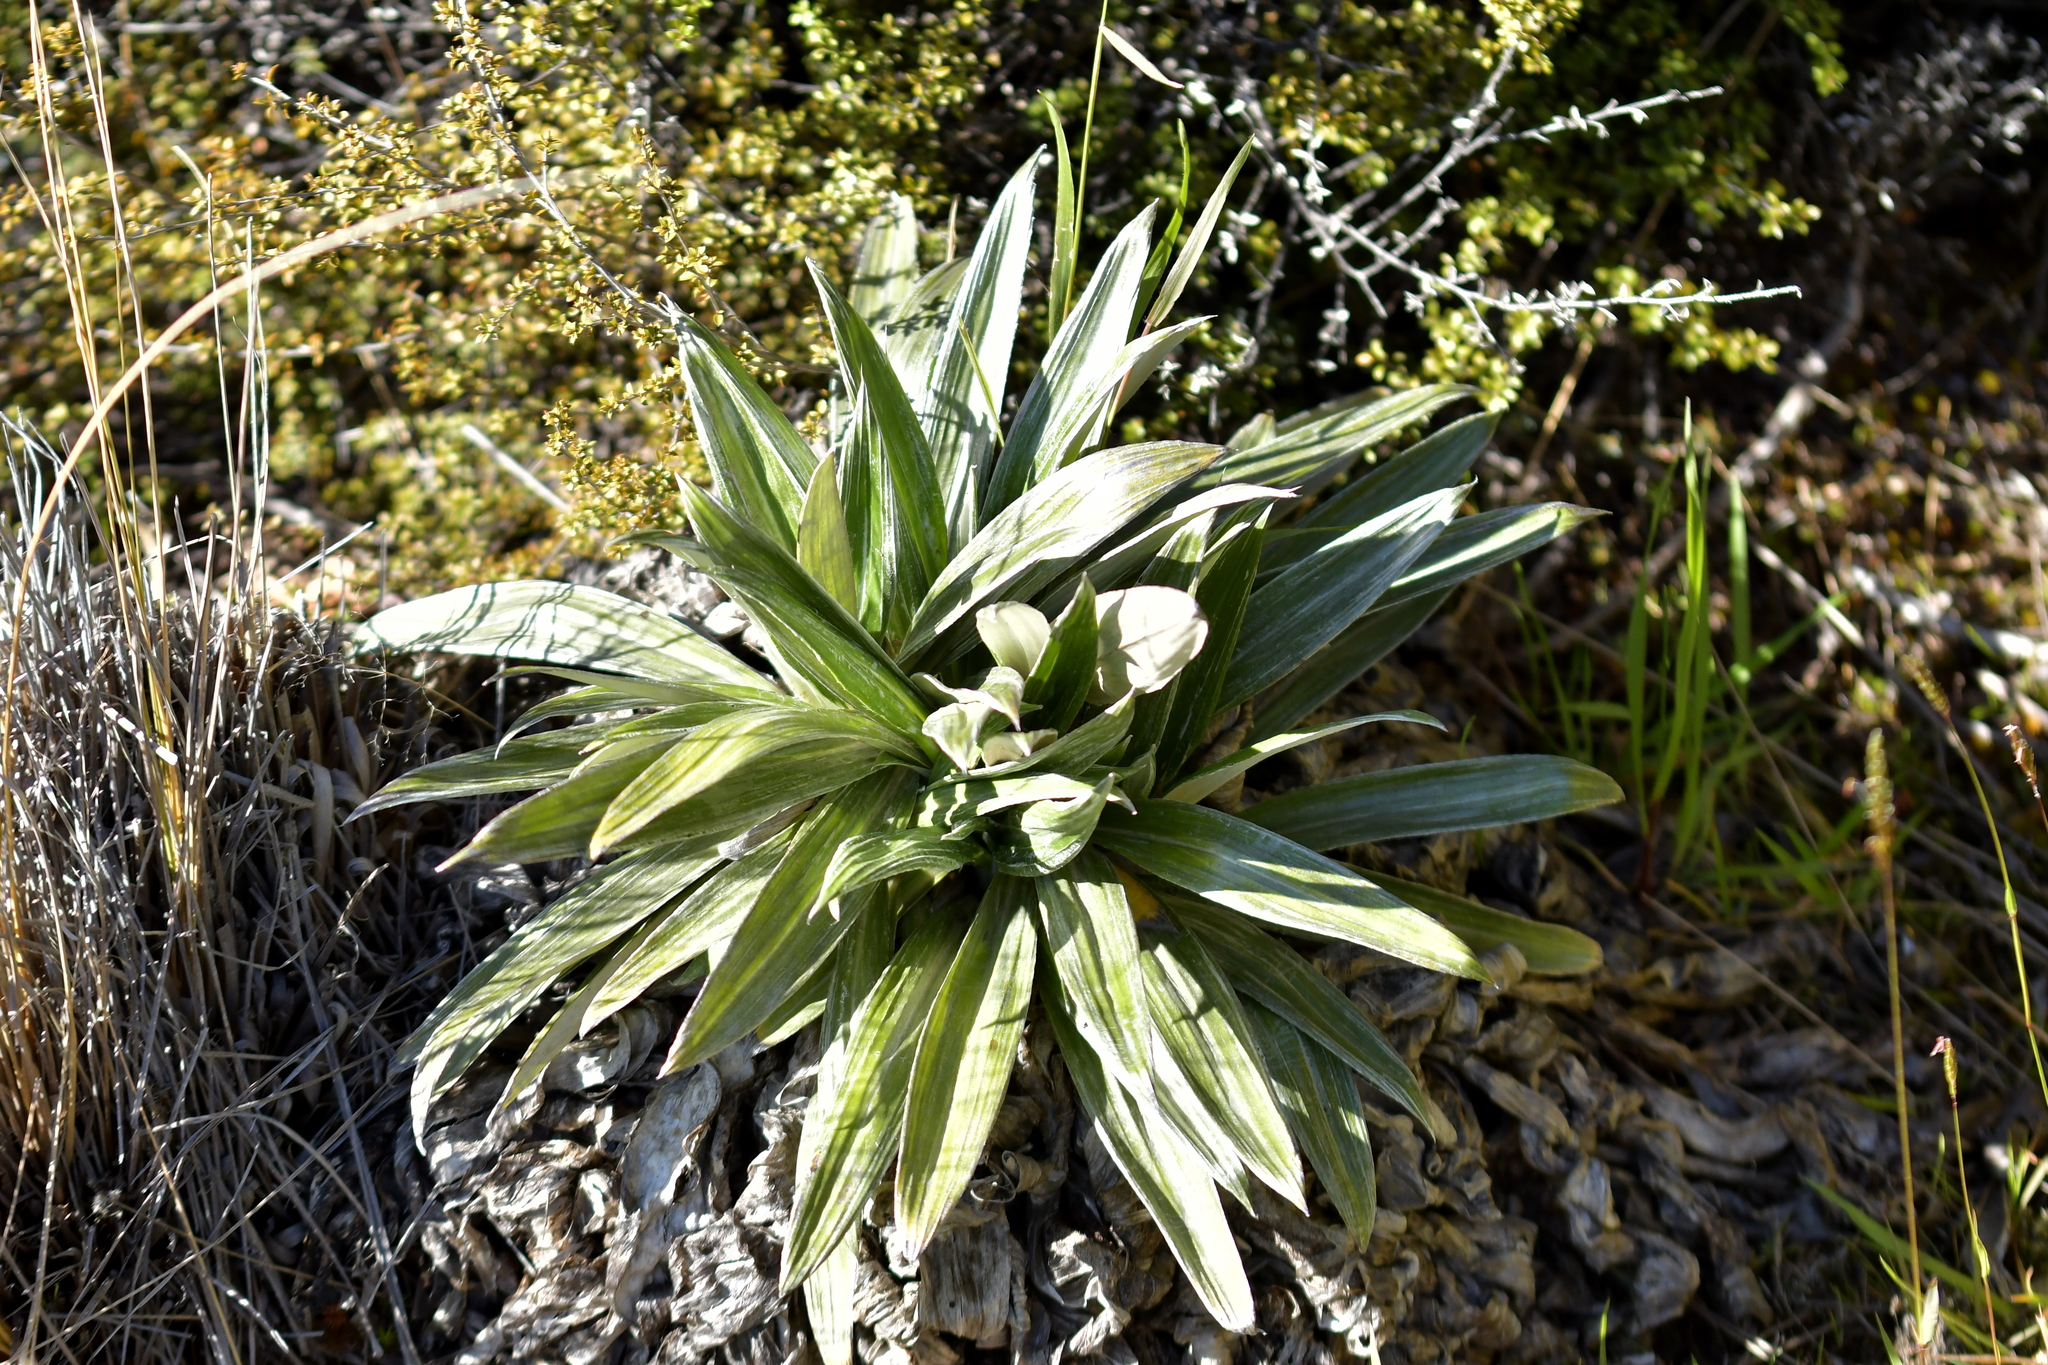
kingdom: Plantae
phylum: Tracheophyta
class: Magnoliopsida
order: Asterales
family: Asteraceae
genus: Celmisia
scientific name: Celmisia semicordata
